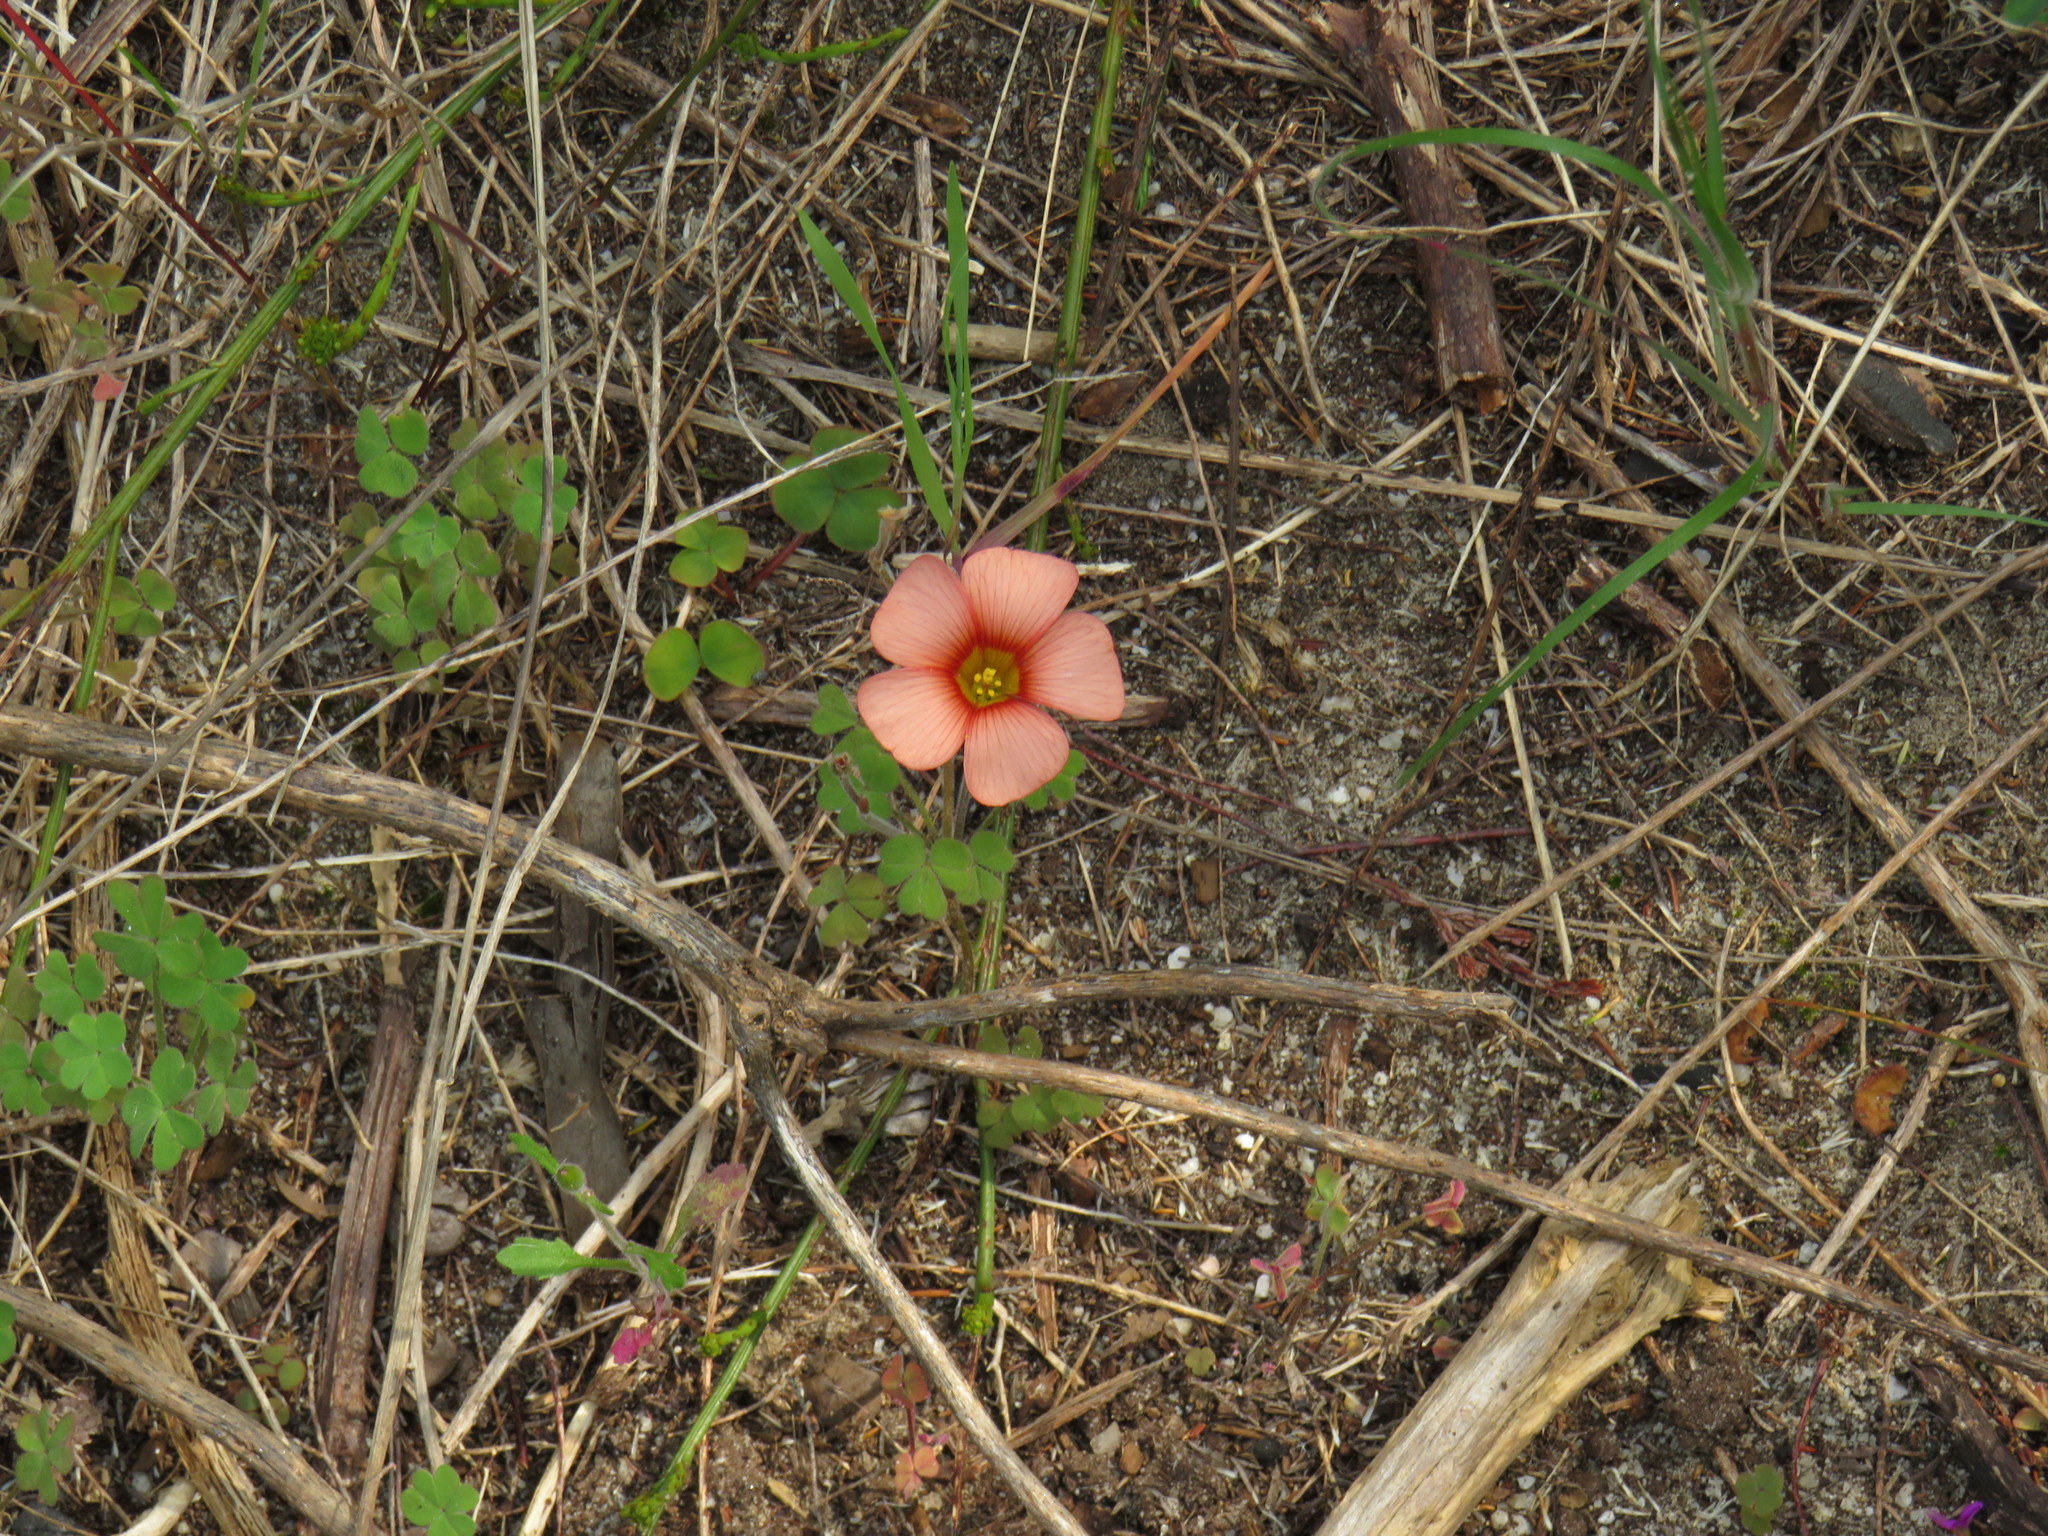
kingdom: Plantae
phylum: Tracheophyta
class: Magnoliopsida
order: Oxalidales
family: Oxalidaceae
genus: Oxalis
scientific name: Oxalis obtusa
